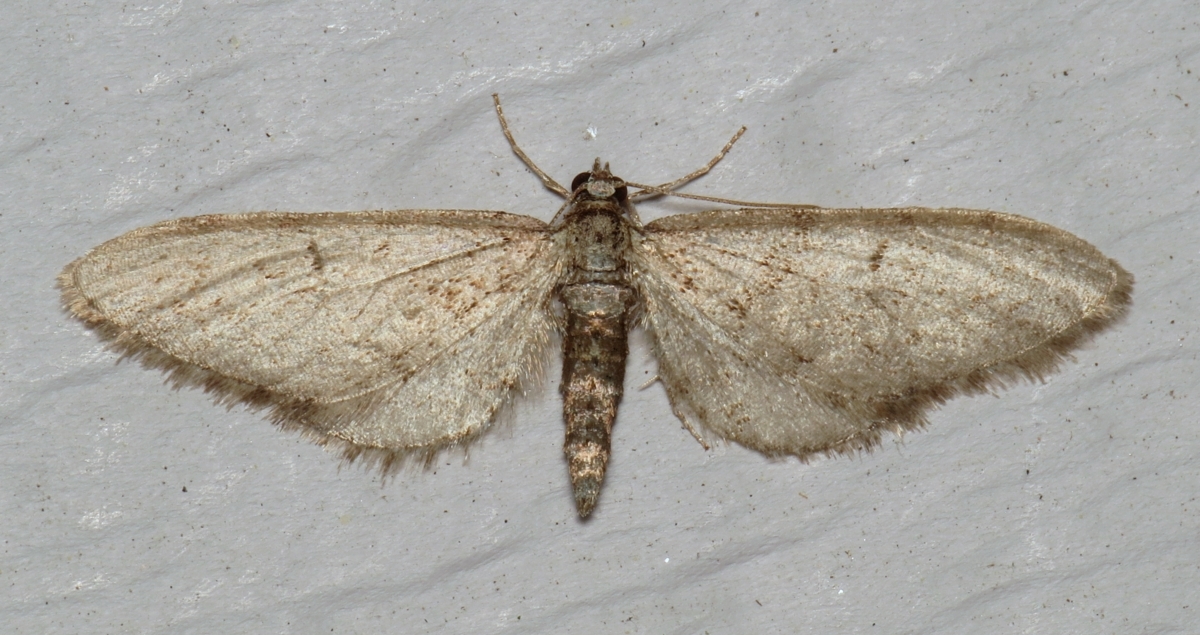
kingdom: Animalia
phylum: Arthropoda
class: Insecta
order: Lepidoptera
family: Geometridae
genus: Eupithecia
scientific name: Eupithecia
